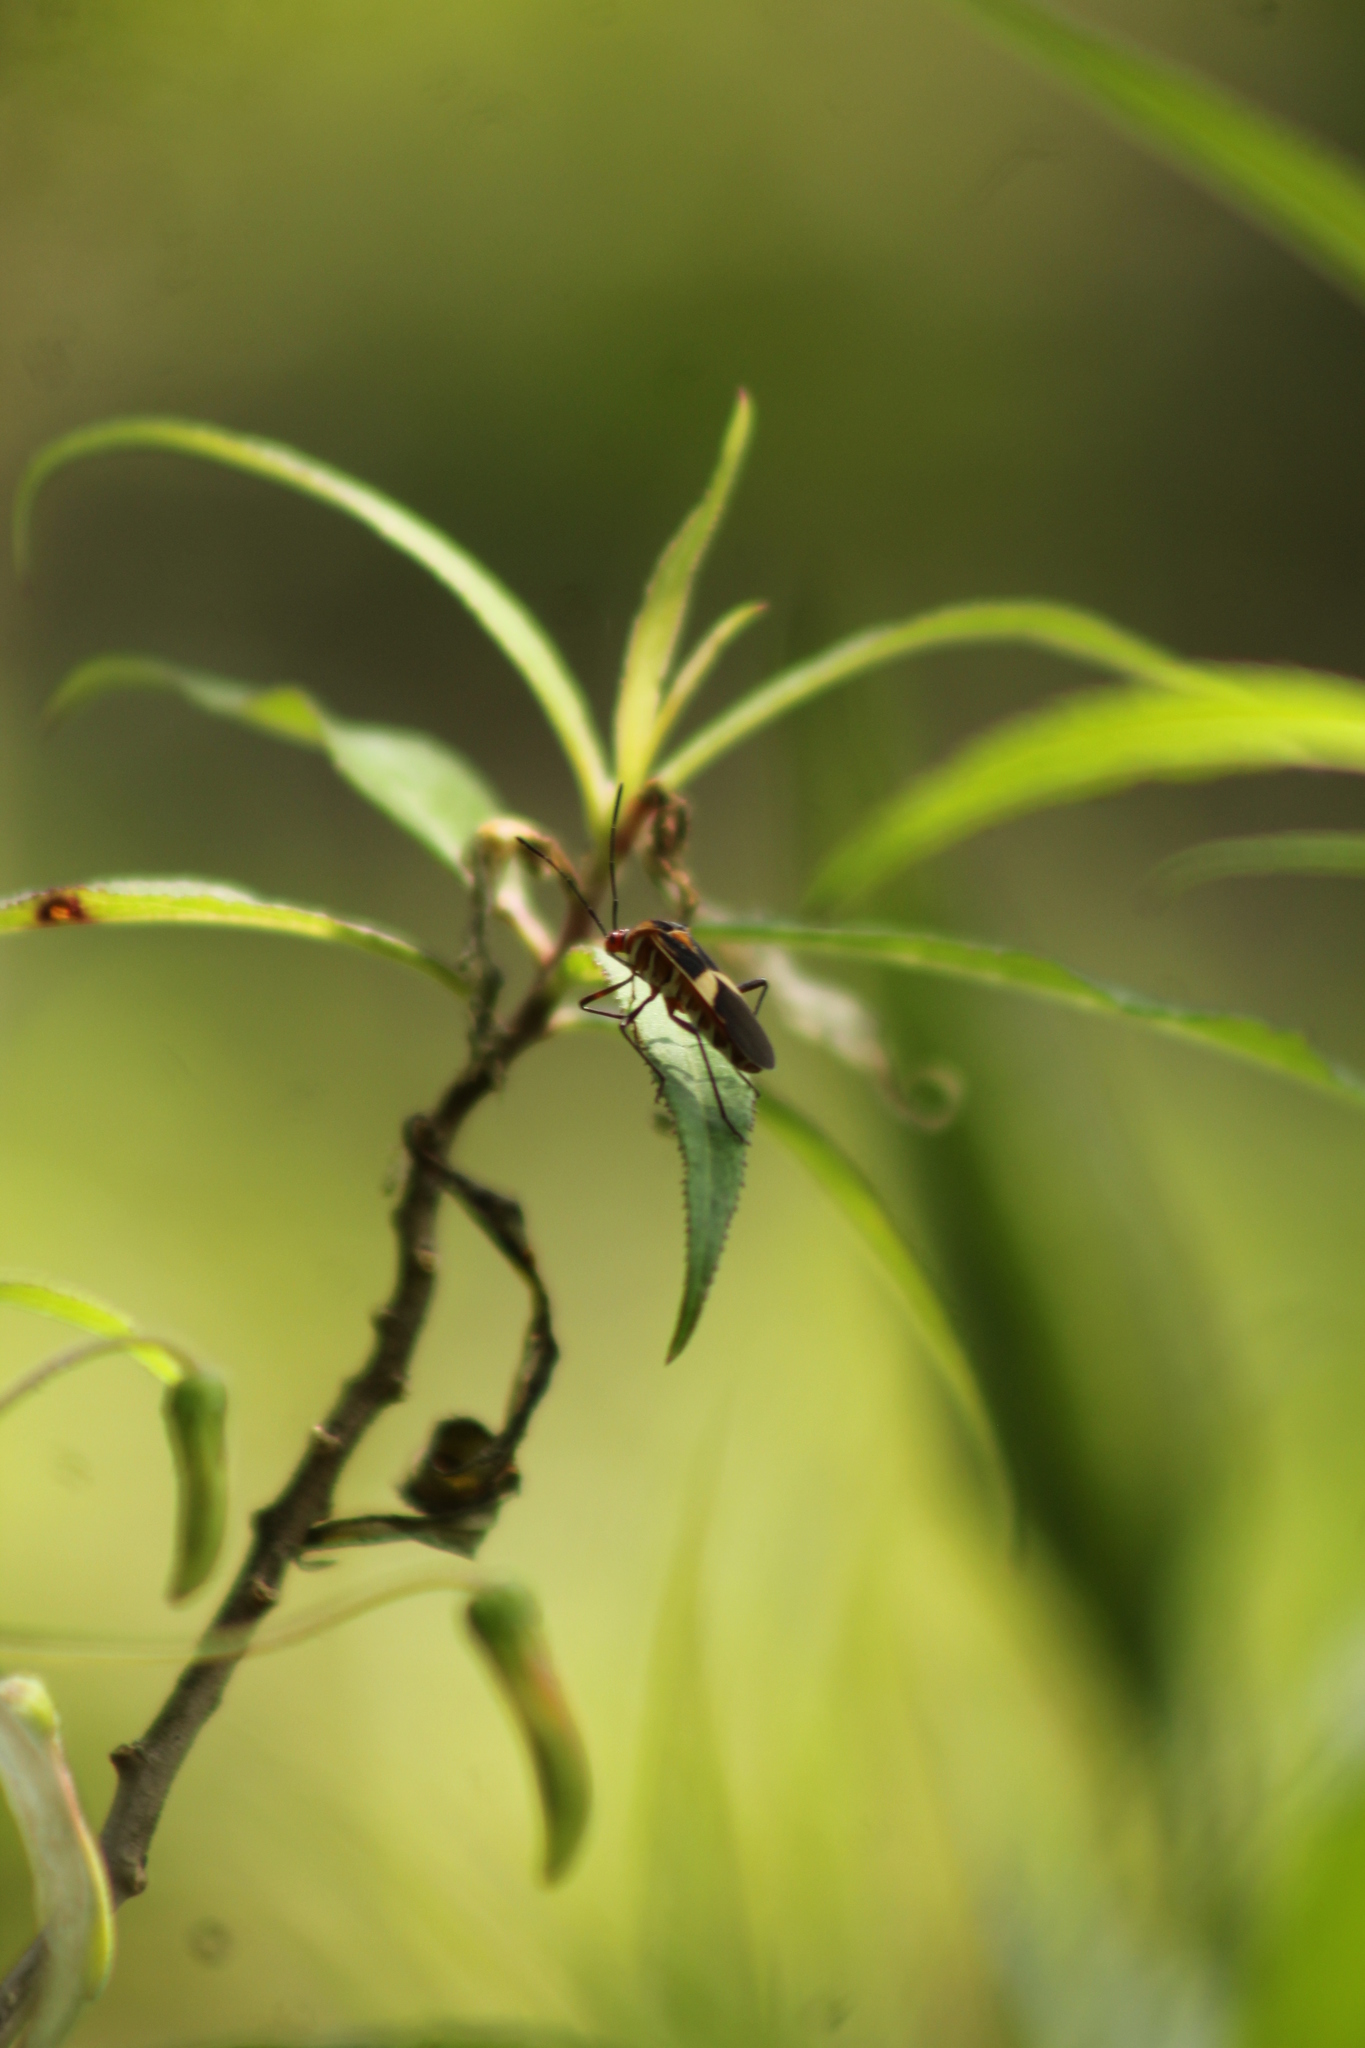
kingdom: Animalia
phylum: Arthropoda
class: Insecta
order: Hemiptera
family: Coreidae
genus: Hypselonotus
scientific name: Hypselonotus interruptus
